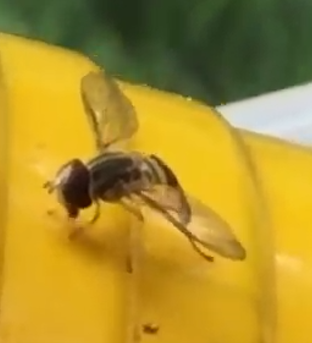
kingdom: Animalia
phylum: Arthropoda
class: Insecta
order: Diptera
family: Syrphidae
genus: Allograpta
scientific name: Allograpta obliqua
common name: Common oblique syrphid
